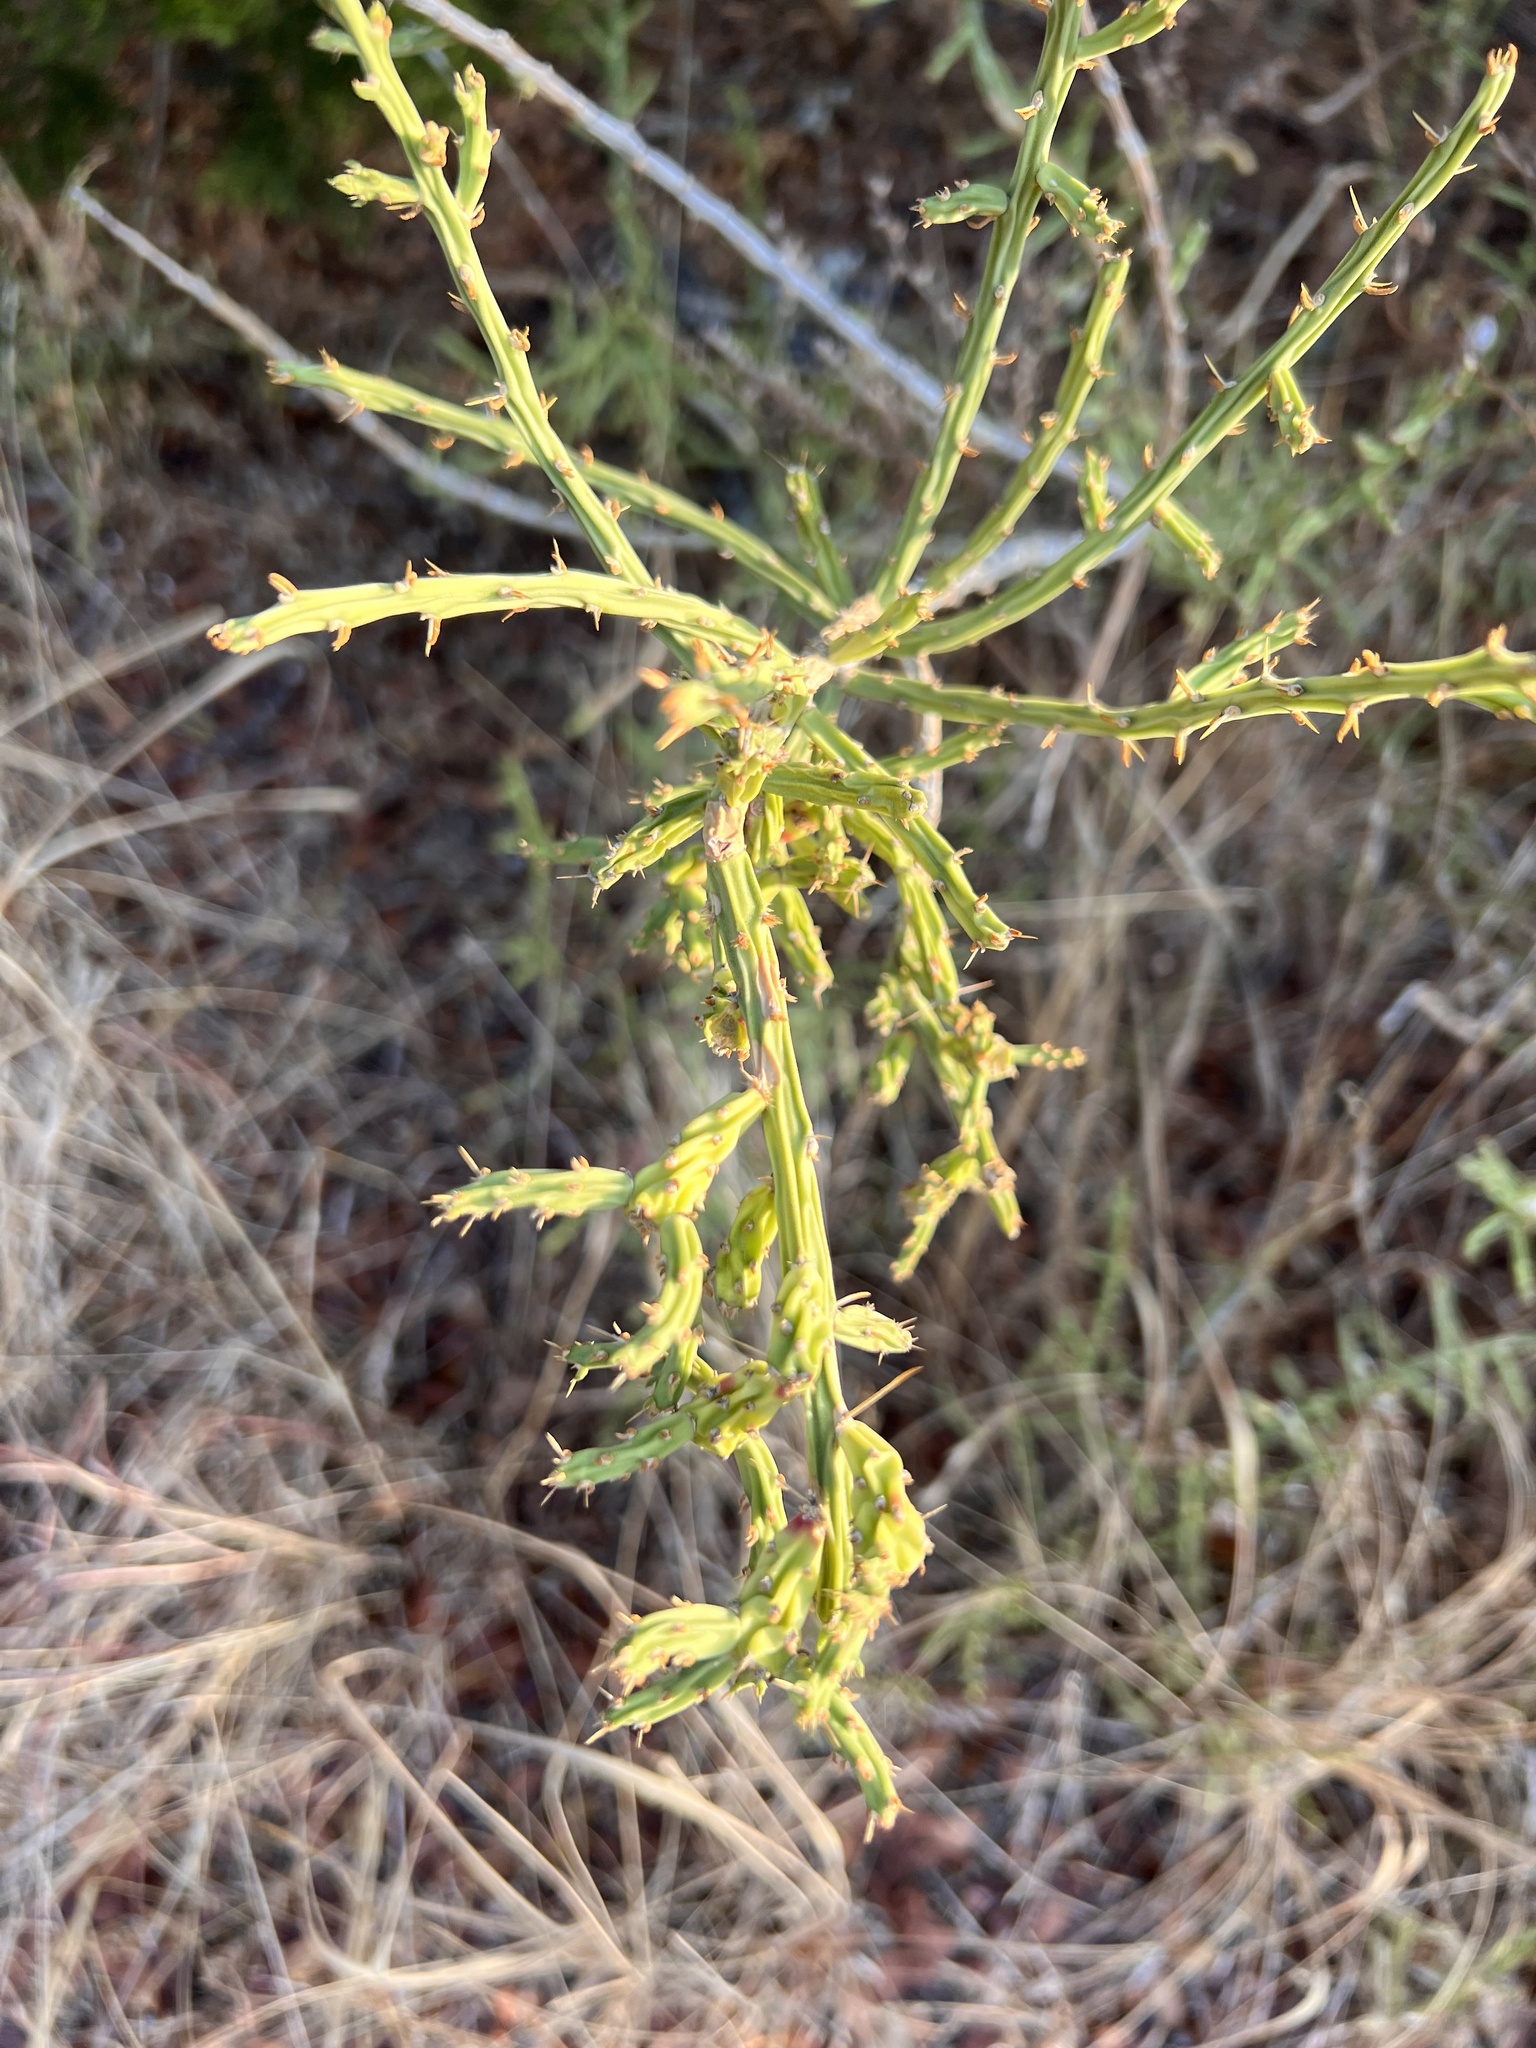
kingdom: Plantae
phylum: Tracheophyta
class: Magnoliopsida
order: Caryophyllales
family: Cactaceae
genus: Cylindropuntia
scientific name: Cylindropuntia leptocaulis
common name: Christmas cactus
